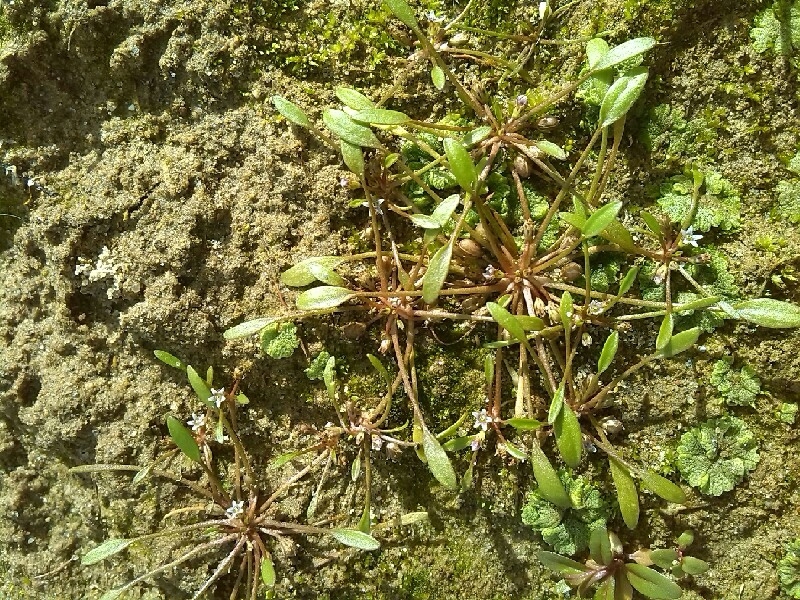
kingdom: Plantae
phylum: Tracheophyta
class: Magnoliopsida
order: Lamiales
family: Scrophulariaceae
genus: Limosella
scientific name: Limosella aquatica
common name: Mudwort
